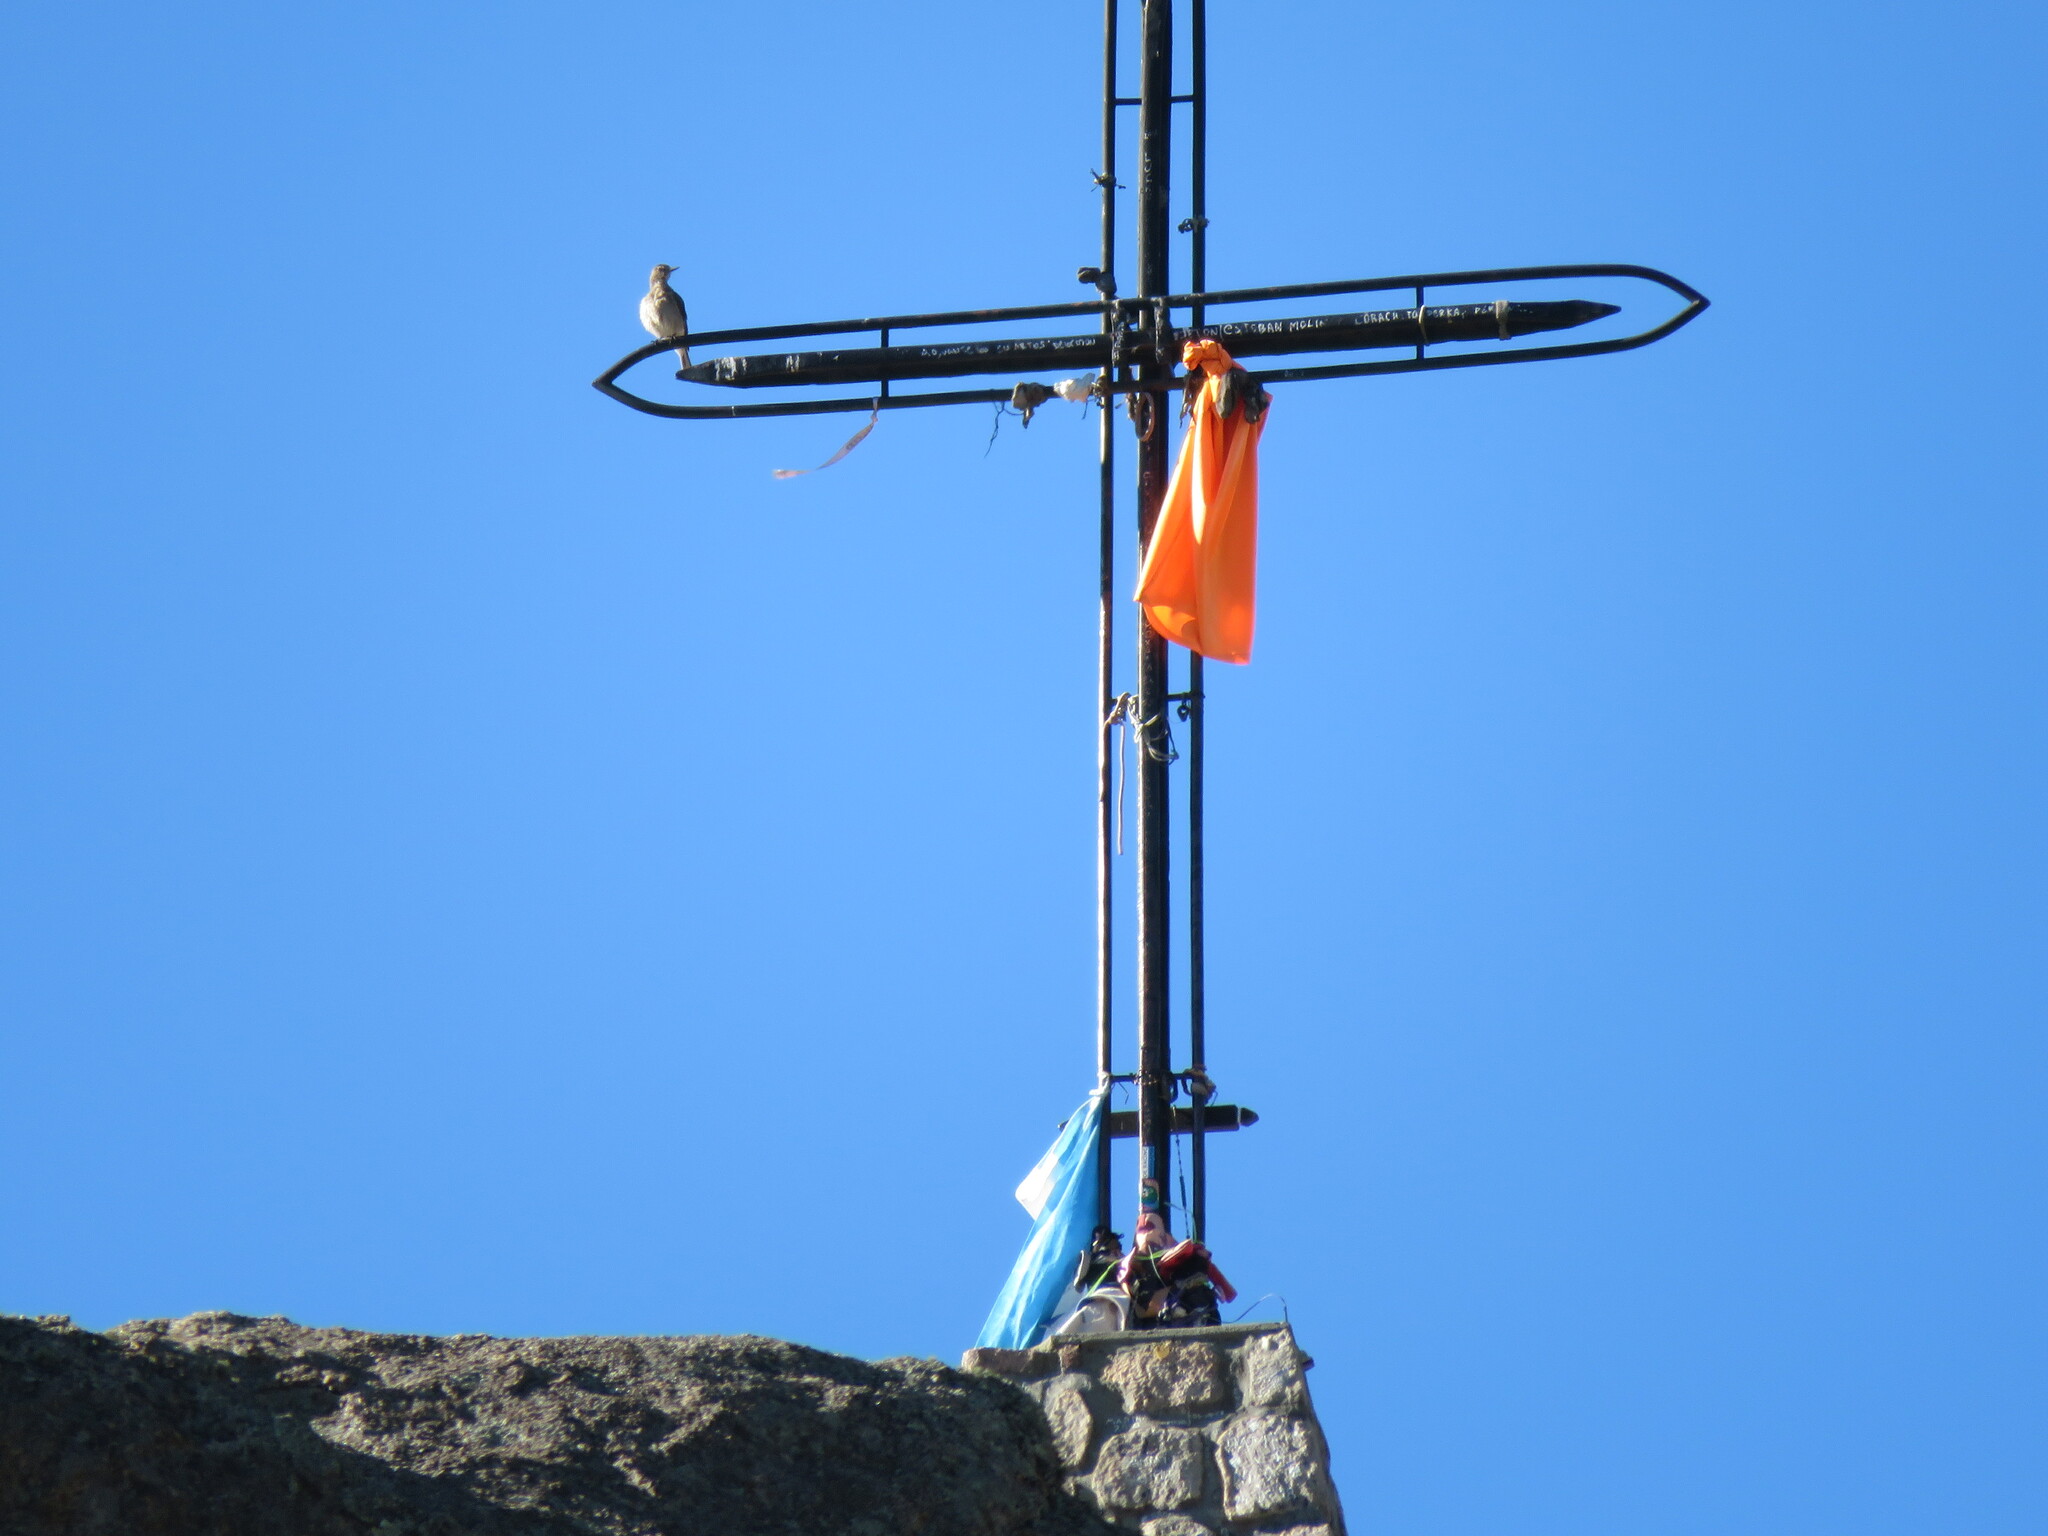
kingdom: Animalia
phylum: Chordata
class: Aves
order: Passeriformes
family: Tyrannidae
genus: Agriornis
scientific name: Agriornis montanus
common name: Black-billed shrike-tyrant
